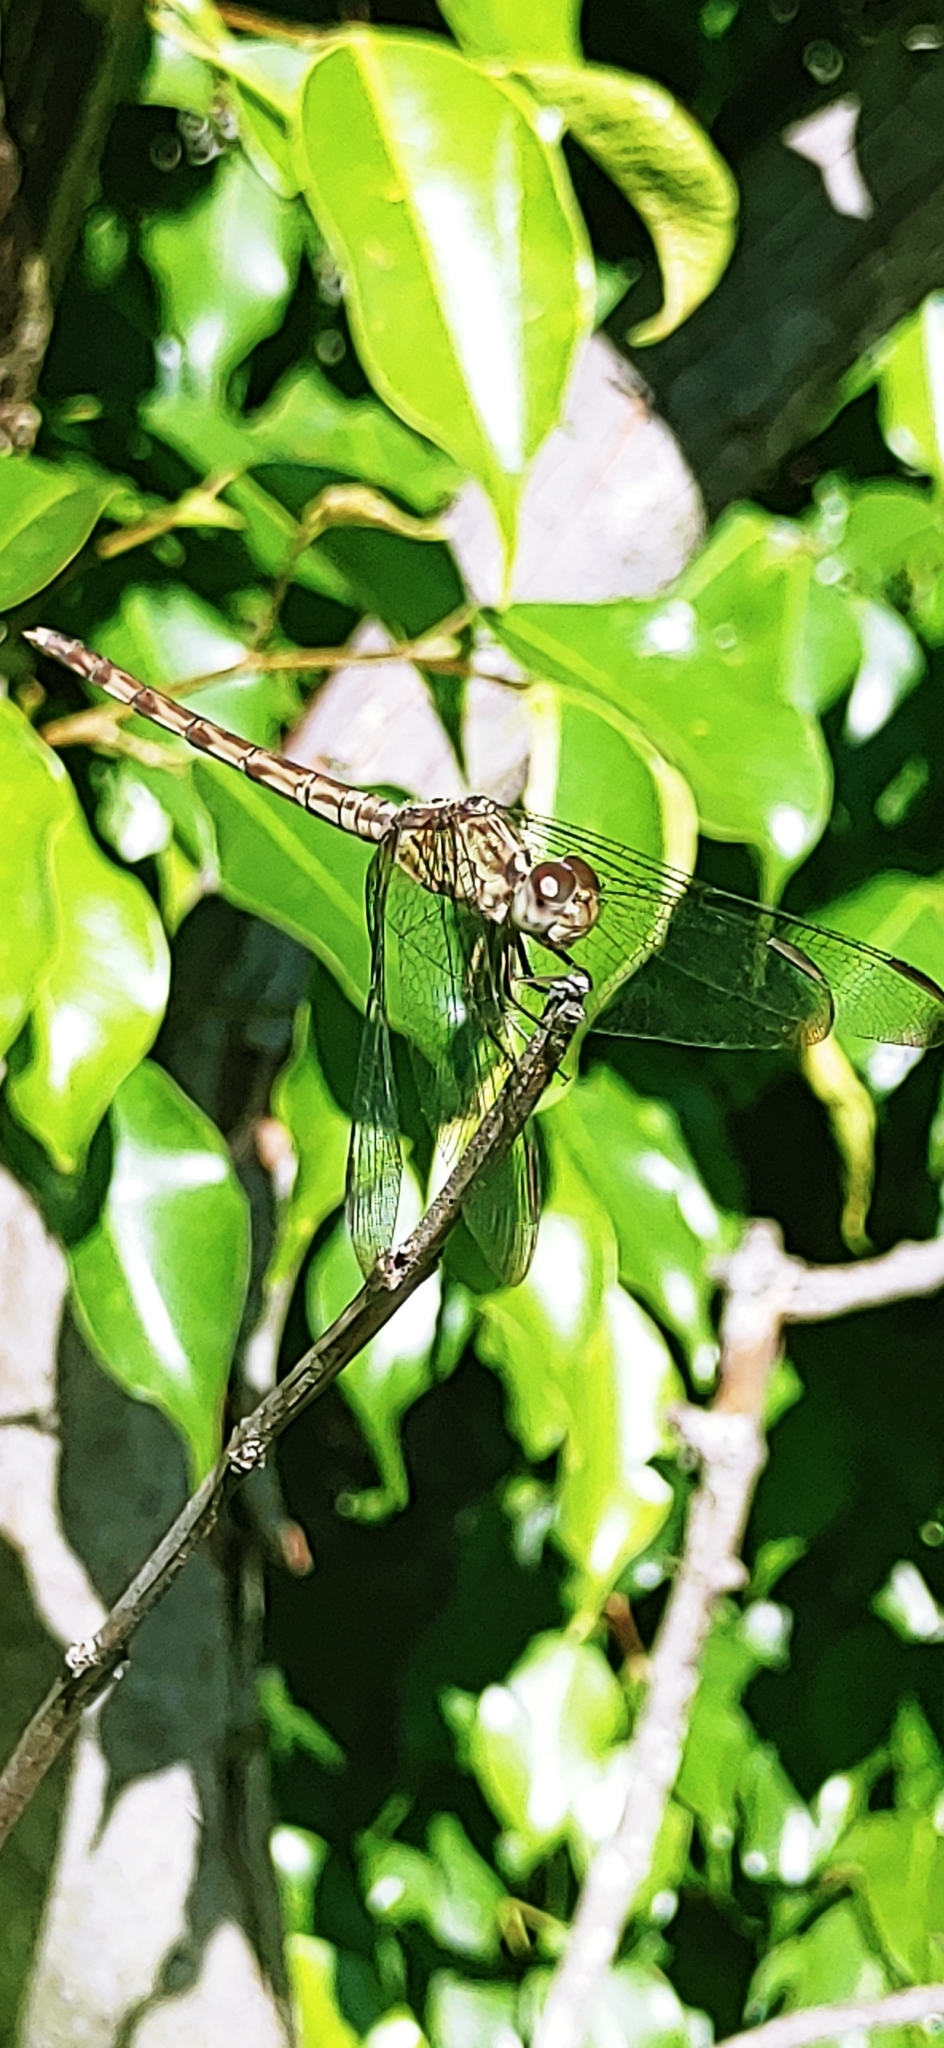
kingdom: Animalia
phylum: Arthropoda
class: Insecta
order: Odonata
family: Libellulidae
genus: Erythrodiplax
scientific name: Erythrodiplax umbrata
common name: Band-winged dragonlet
